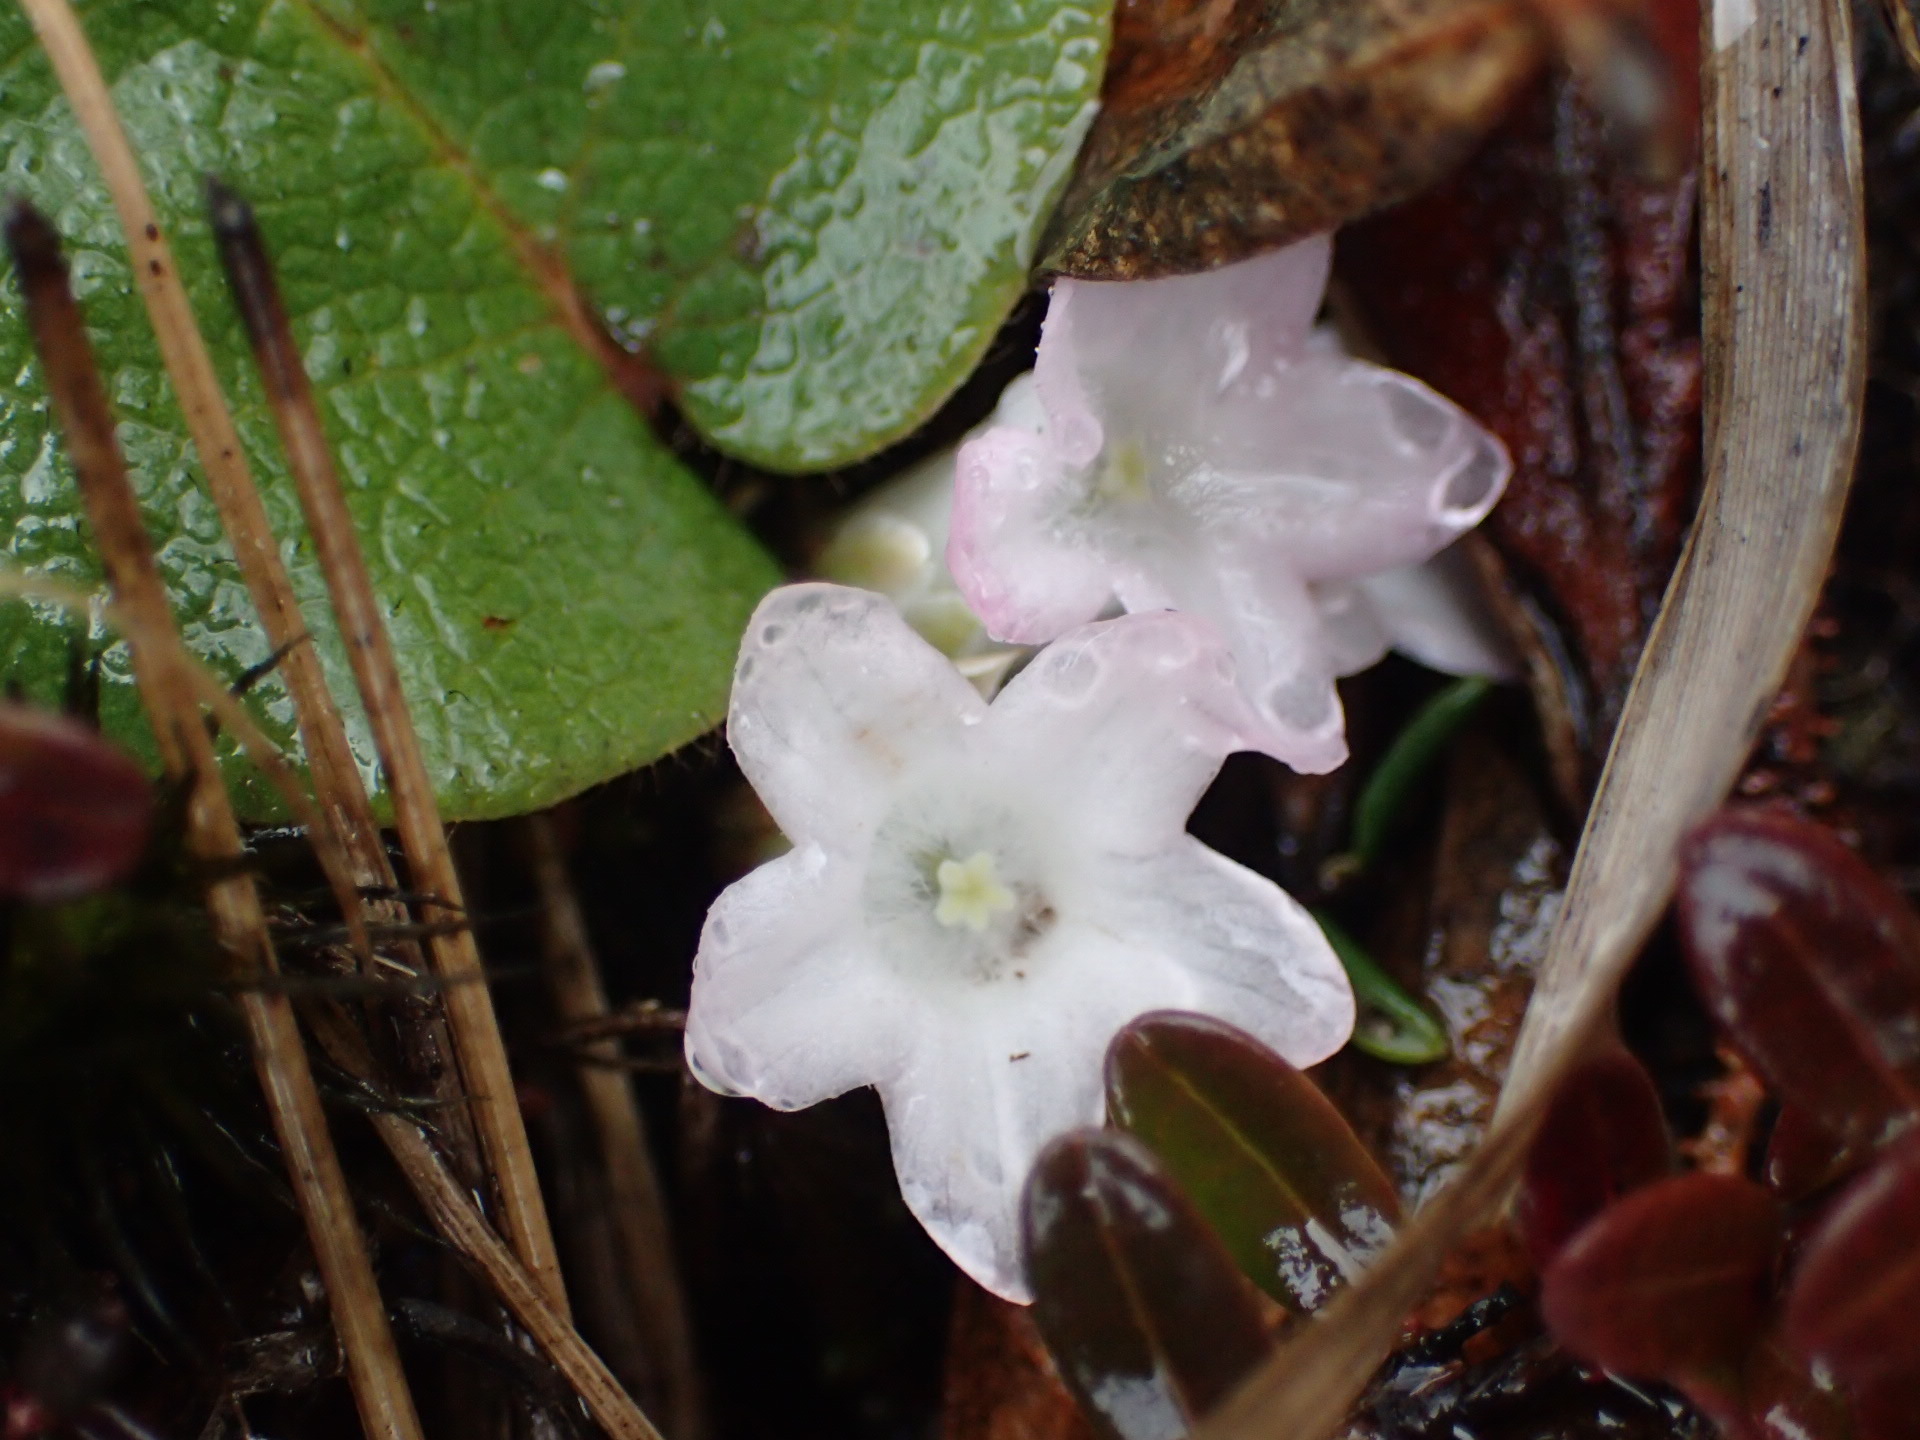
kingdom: Plantae
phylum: Tracheophyta
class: Magnoliopsida
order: Ericales
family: Ericaceae
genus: Epigaea
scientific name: Epigaea repens
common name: Gravelroot
